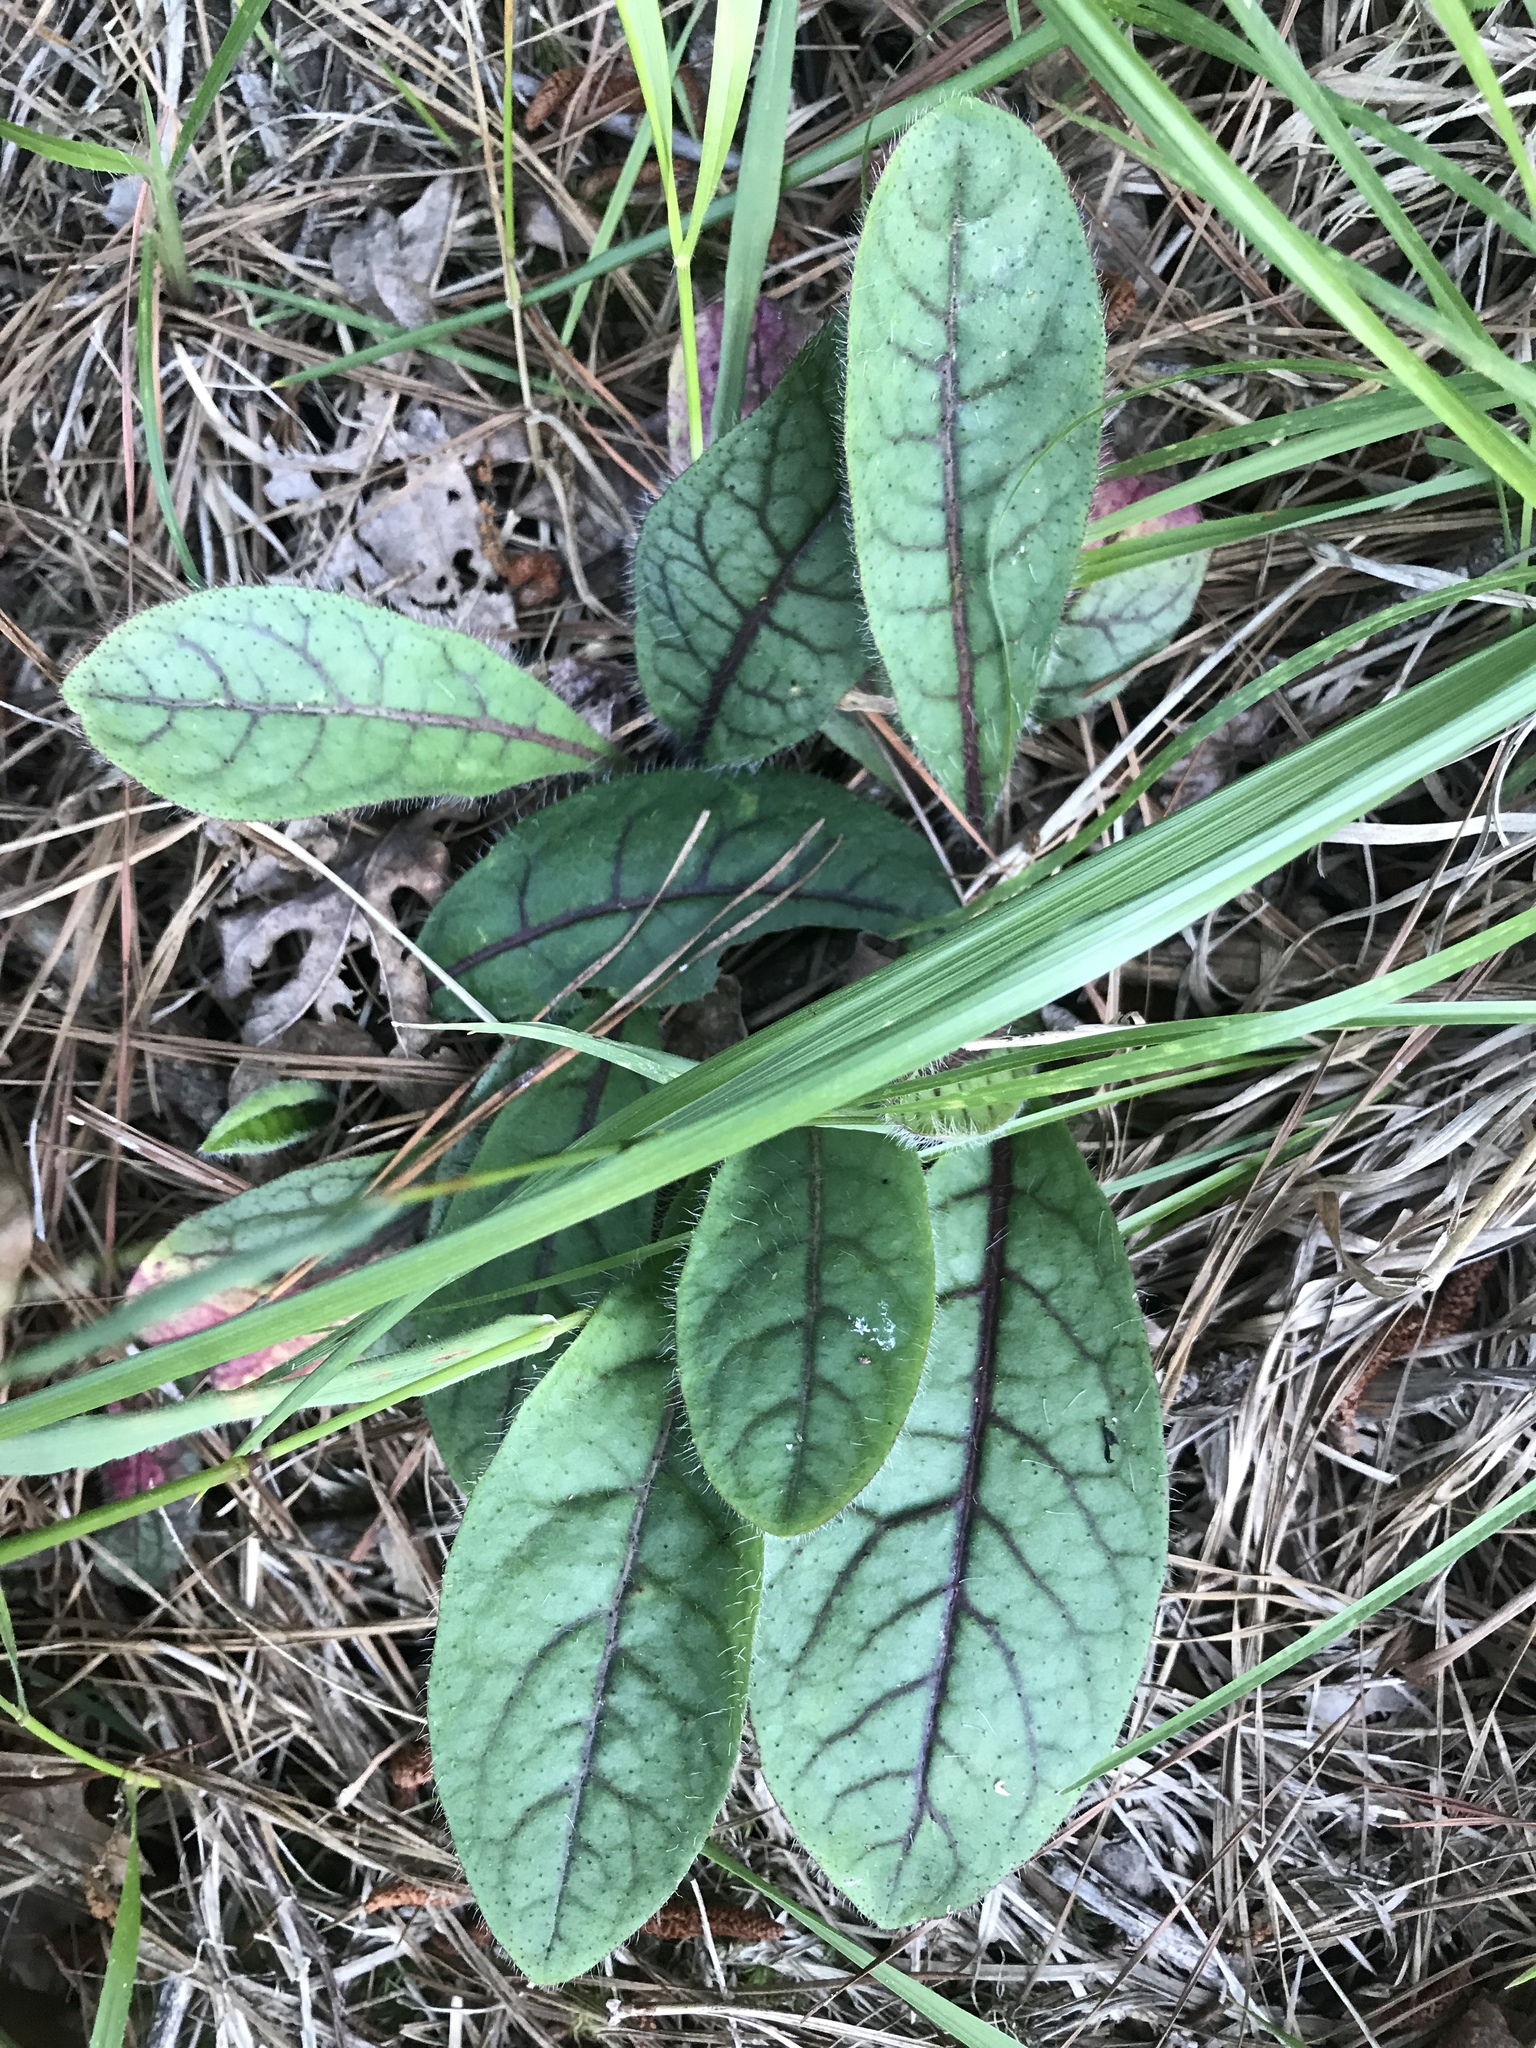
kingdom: Plantae
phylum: Tracheophyta
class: Magnoliopsida
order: Asterales
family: Asteraceae
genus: Hieracium
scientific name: Hieracium venosum
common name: Rattlesnake hawkweed
